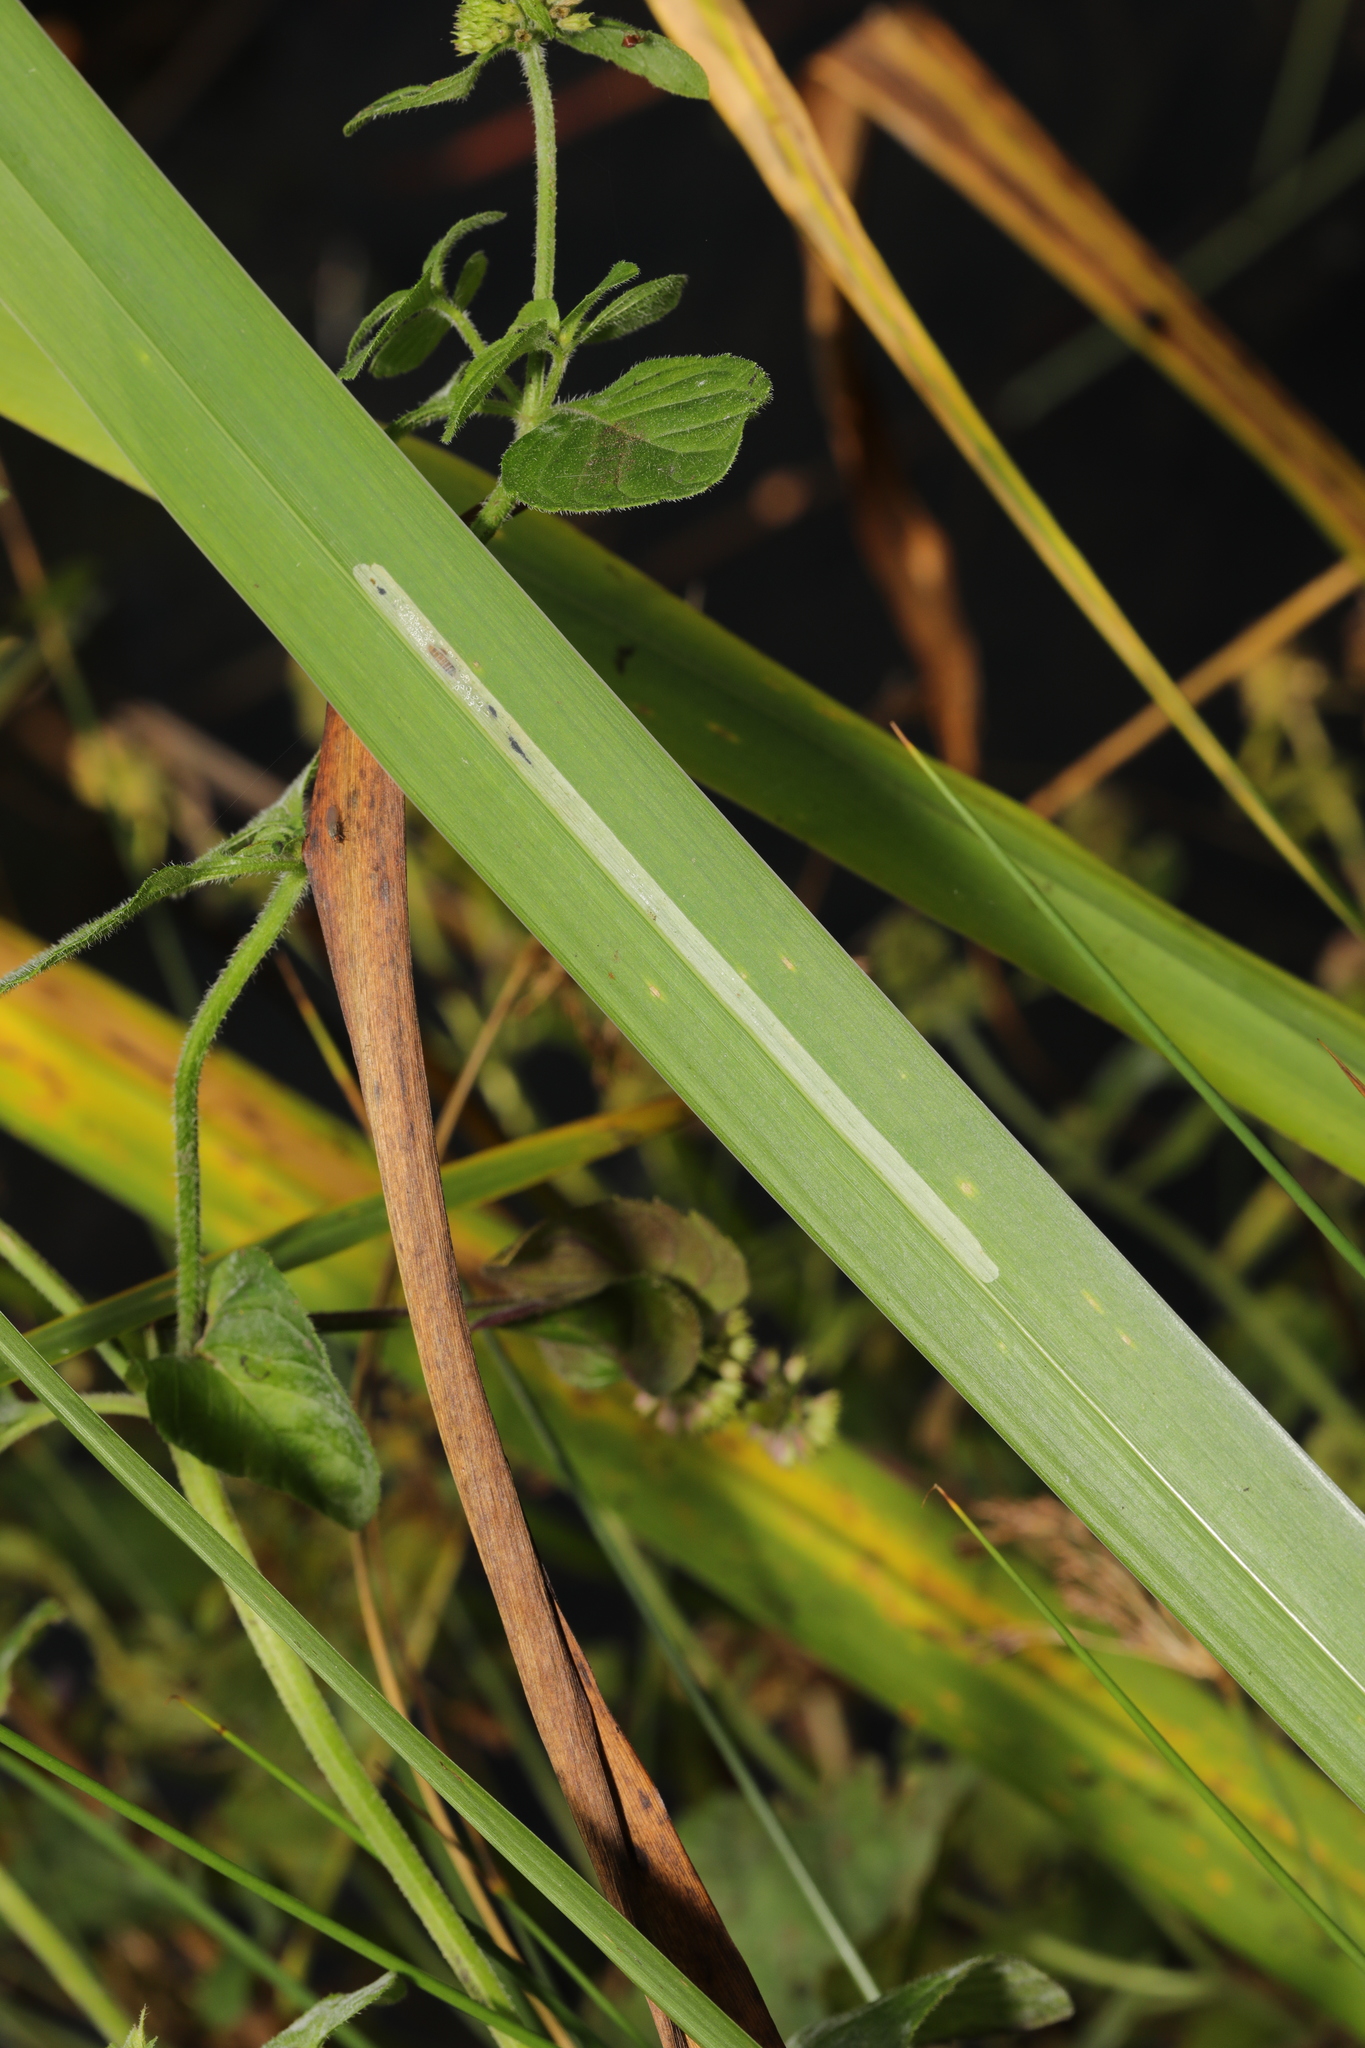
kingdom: Animalia
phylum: Arthropoda
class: Insecta
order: Diptera
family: Agromyzidae
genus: Cerodontha
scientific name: Cerodontha ircos
